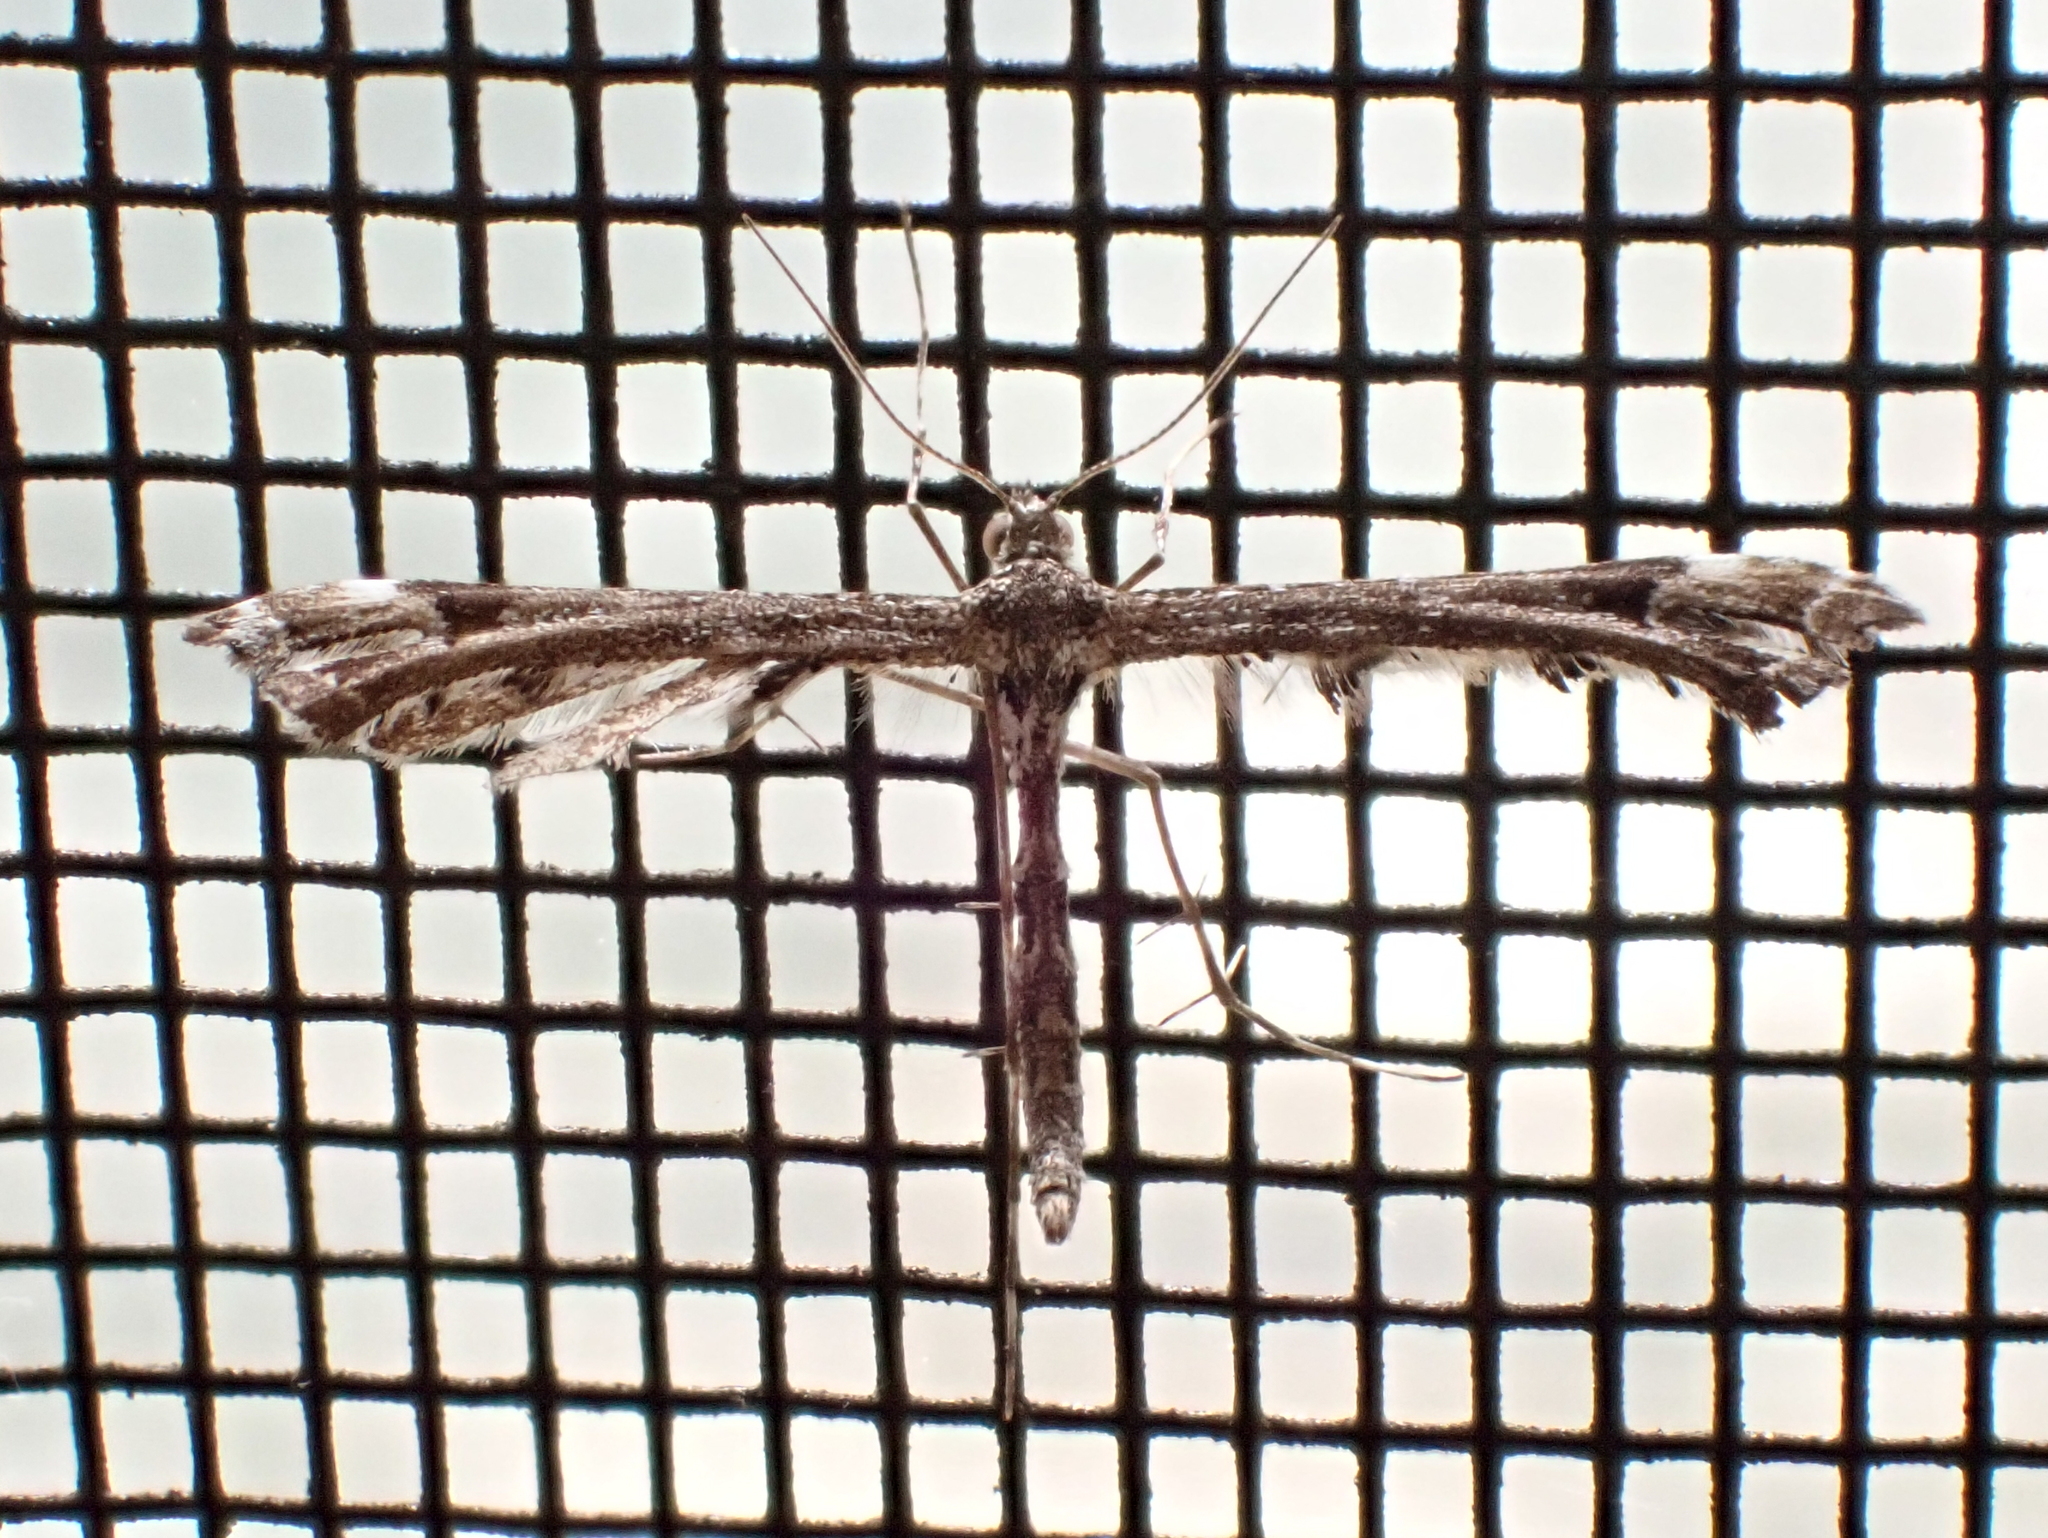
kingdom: Animalia
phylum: Arthropoda
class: Insecta
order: Lepidoptera
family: Pterophoridae
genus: Amblyptilia
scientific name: Amblyptilia pica
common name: Geranium plume moth
